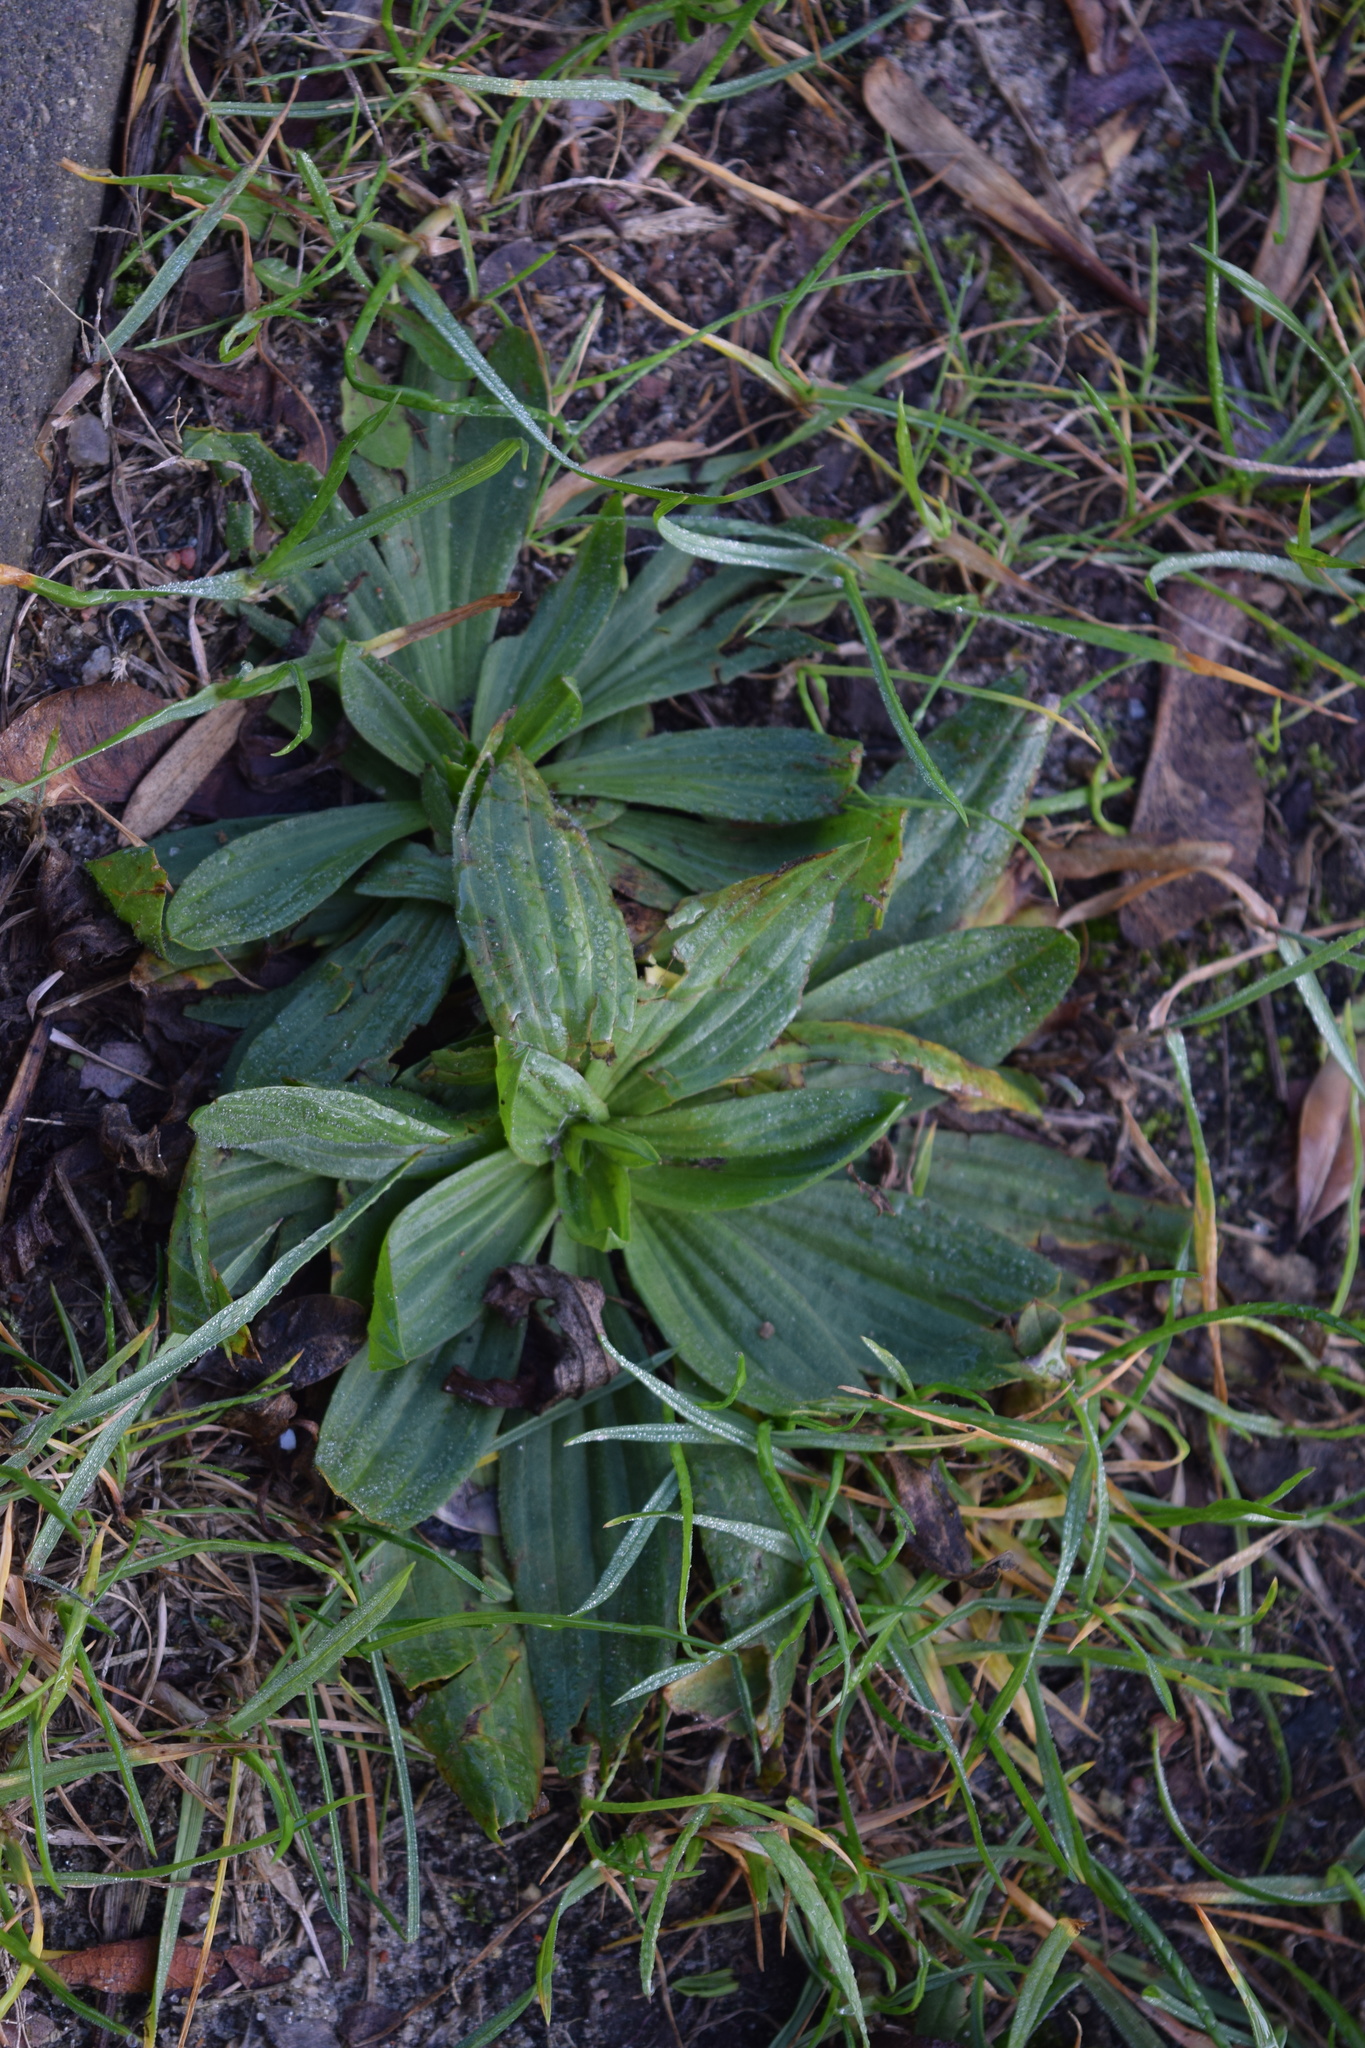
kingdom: Plantae
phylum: Tracheophyta
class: Magnoliopsida
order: Lamiales
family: Plantaginaceae
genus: Plantago
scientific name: Plantago lanceolata
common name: Ribwort plantain
